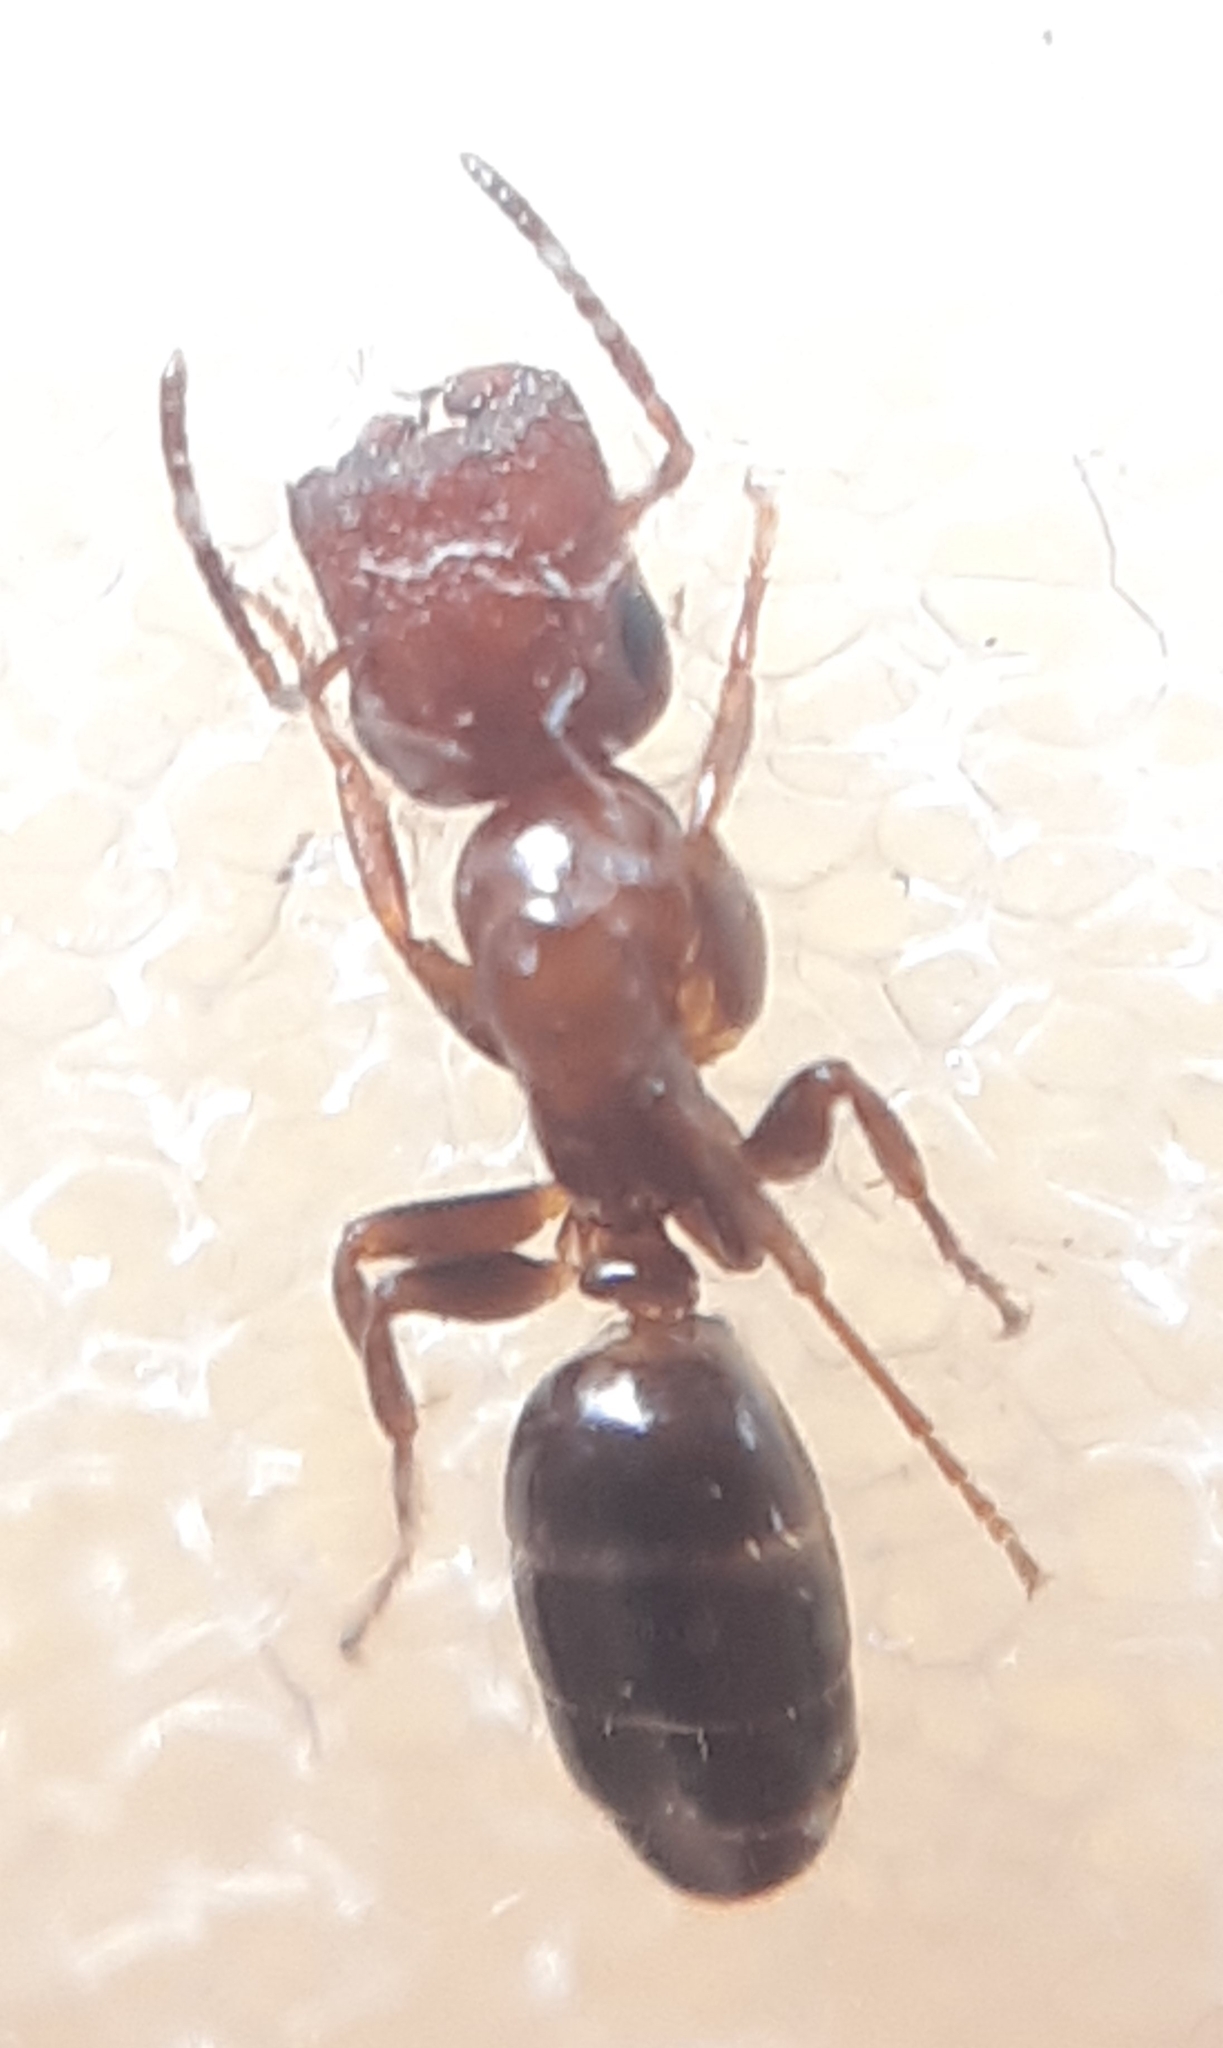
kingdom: Animalia
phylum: Arthropoda
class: Insecta
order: Hymenoptera
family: Formicidae
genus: Camponotus
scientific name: Camponotus truncatus
